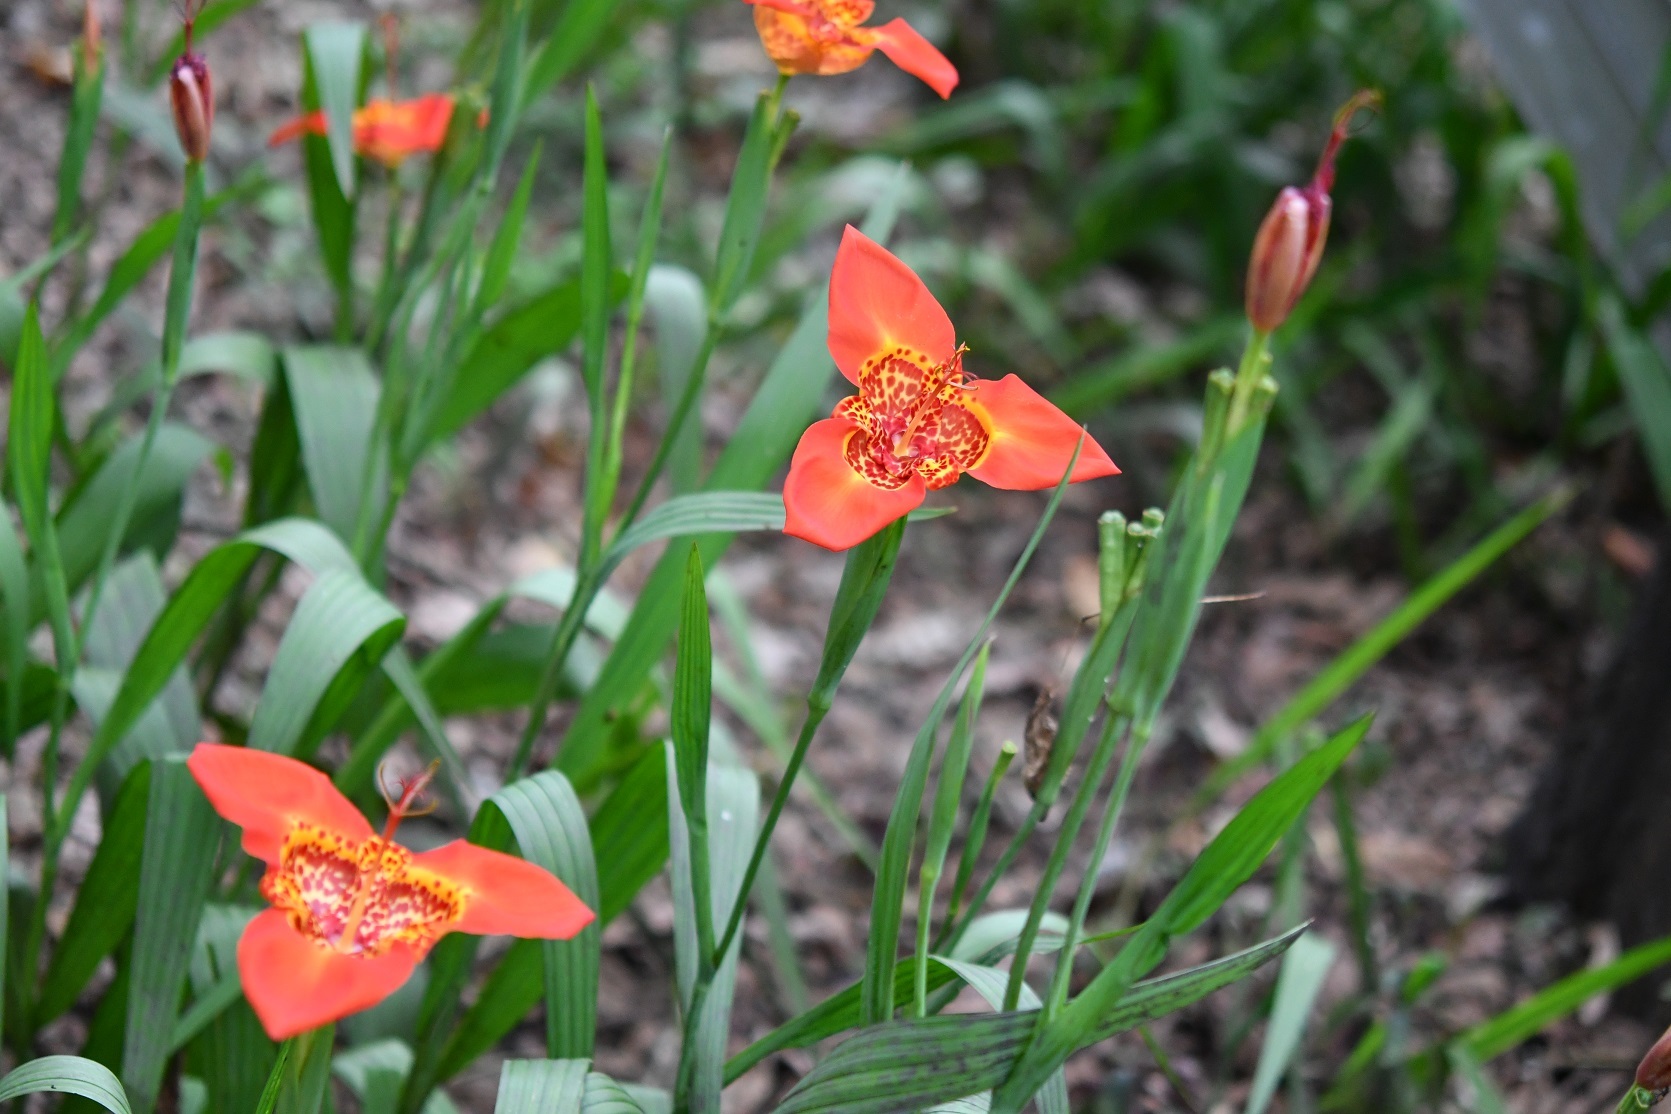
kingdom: Plantae
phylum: Tracheophyta
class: Liliopsida
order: Asparagales
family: Iridaceae
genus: Tigridia
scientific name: Tigridia pavonia
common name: Peacock-flower
